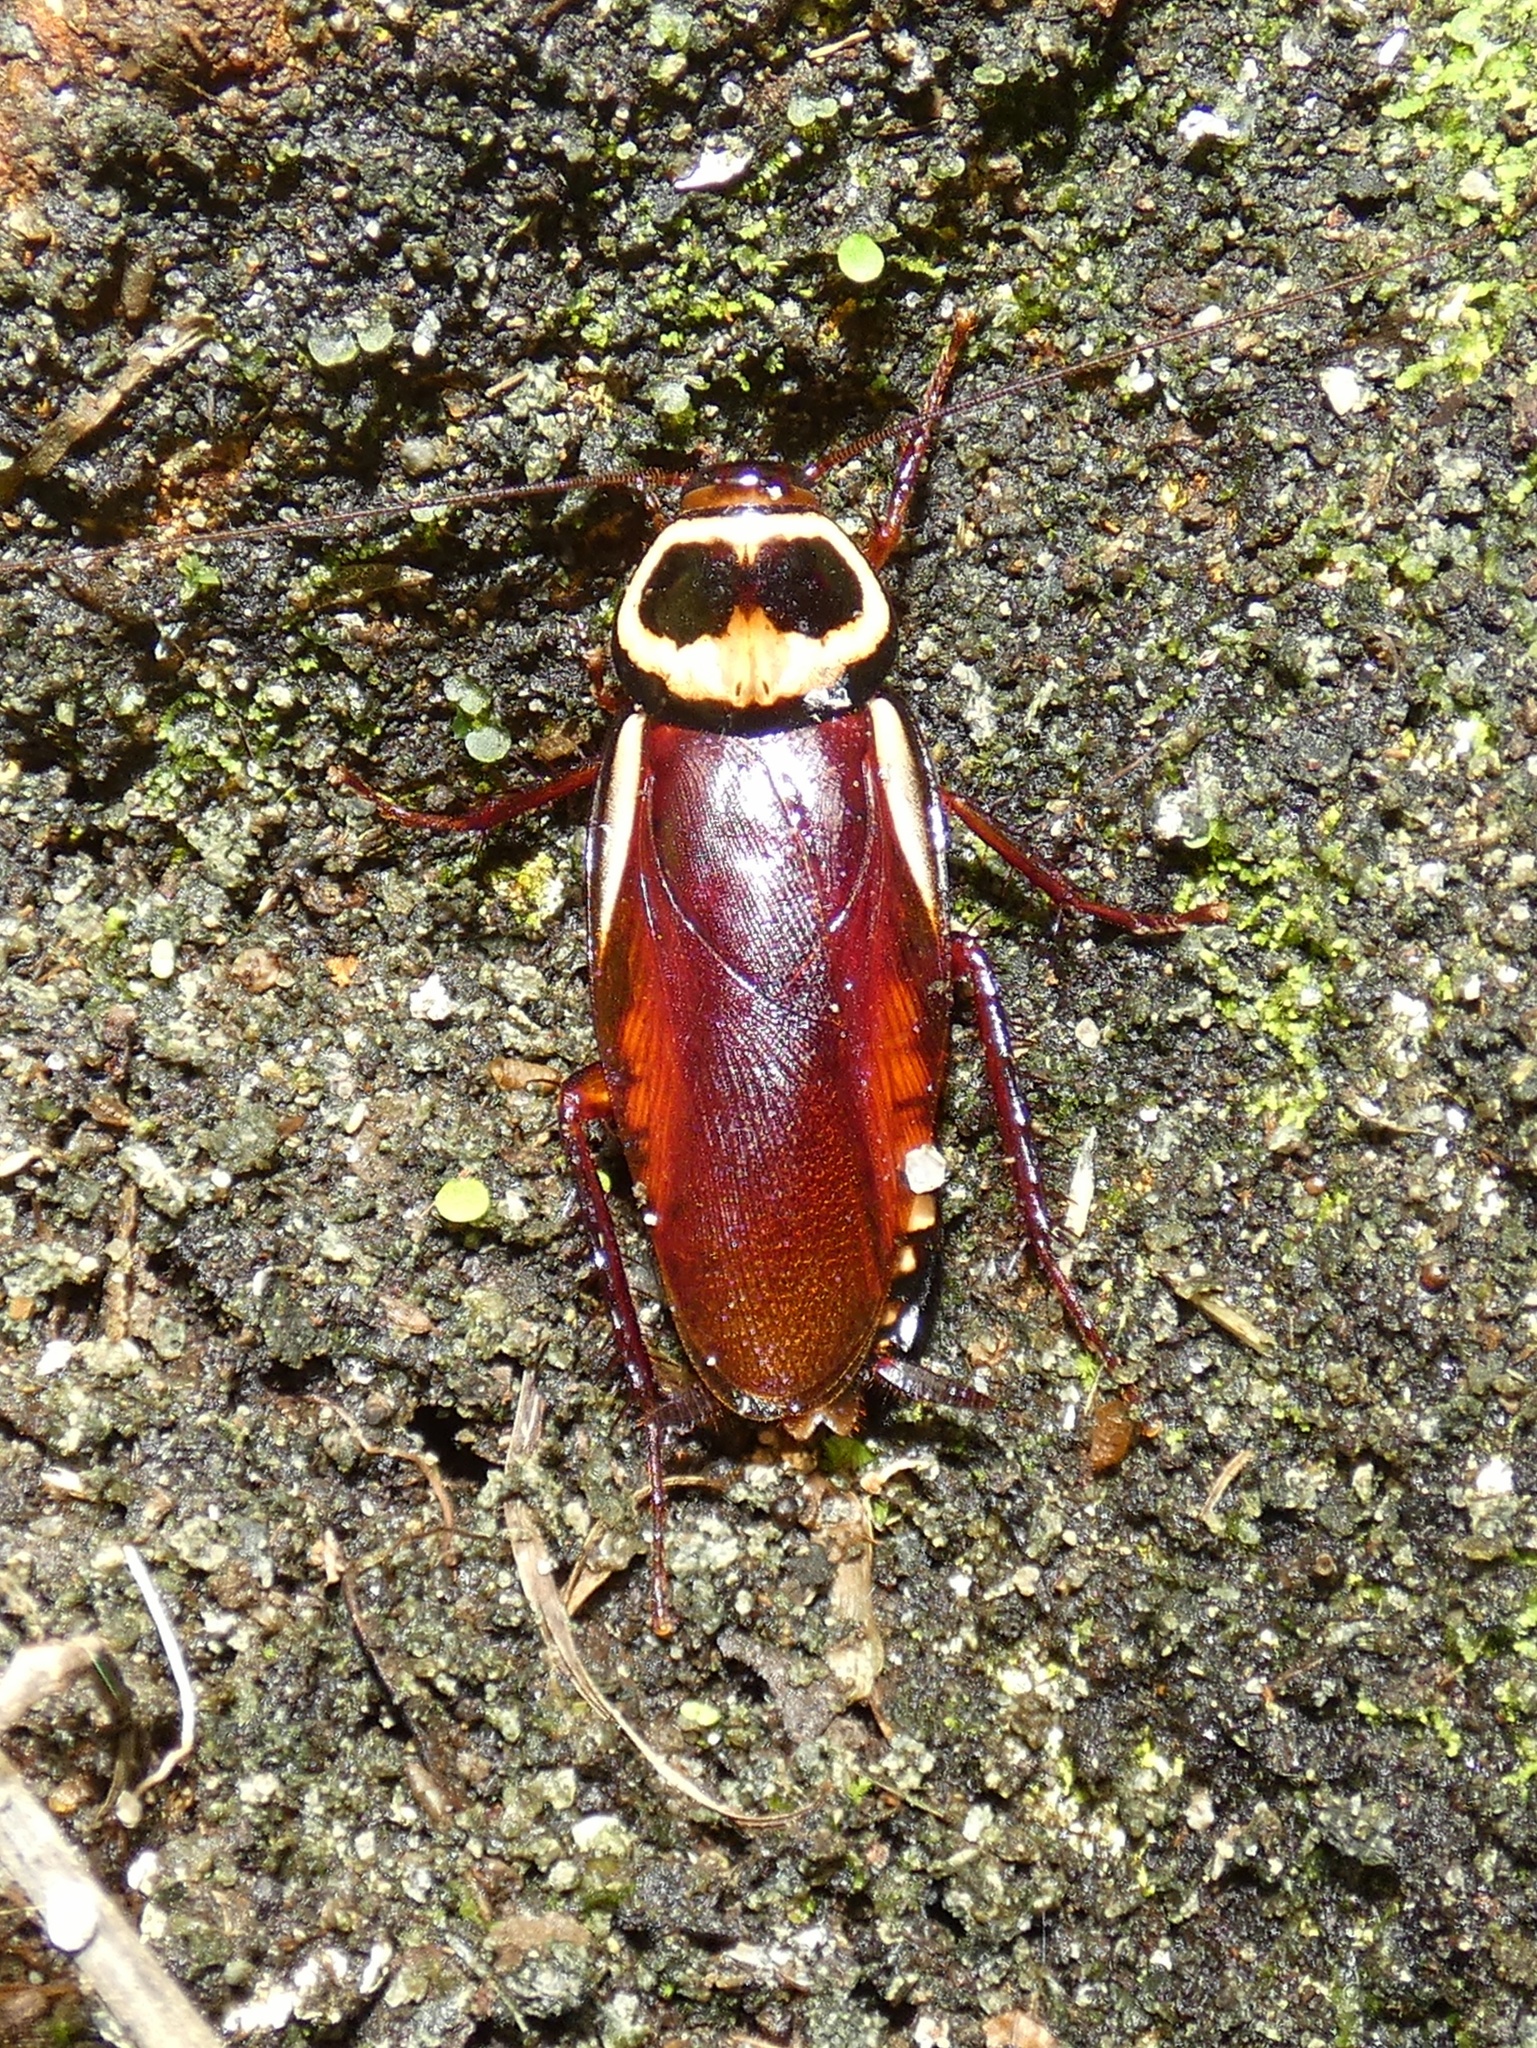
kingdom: Animalia
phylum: Arthropoda
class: Insecta
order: Blattodea
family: Blattidae
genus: Periplaneta
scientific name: Periplaneta australasiae
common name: Australian cockroach
